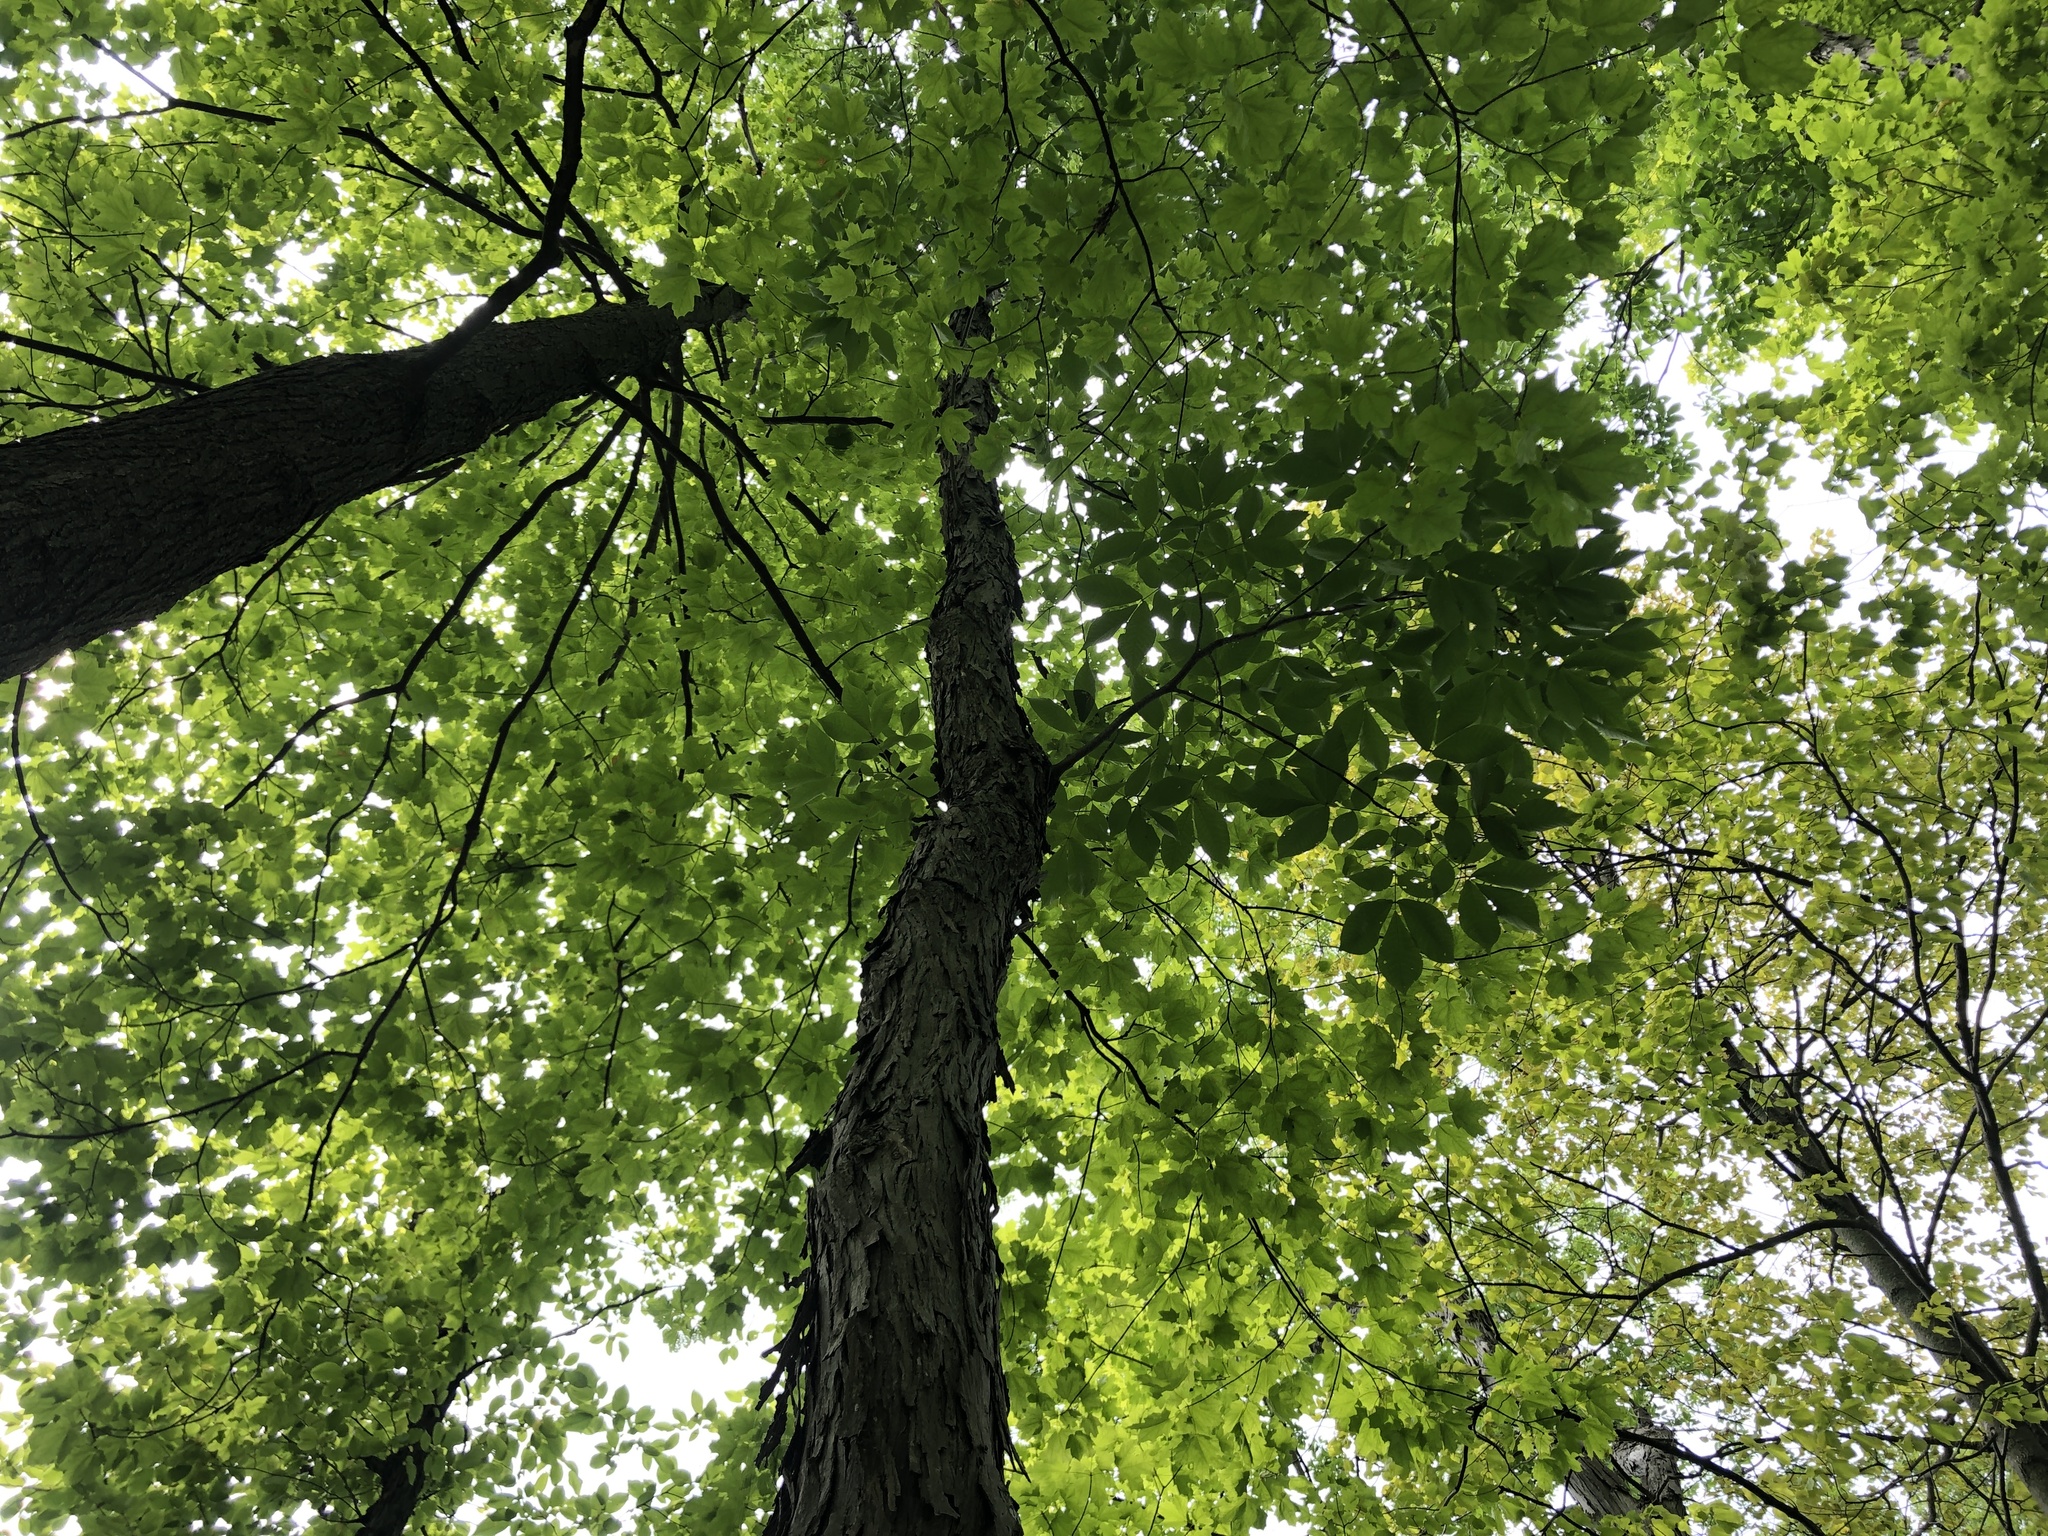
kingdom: Plantae
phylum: Tracheophyta
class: Magnoliopsida
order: Fagales
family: Juglandaceae
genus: Carya
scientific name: Carya ovata
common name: Shagbark hickory
